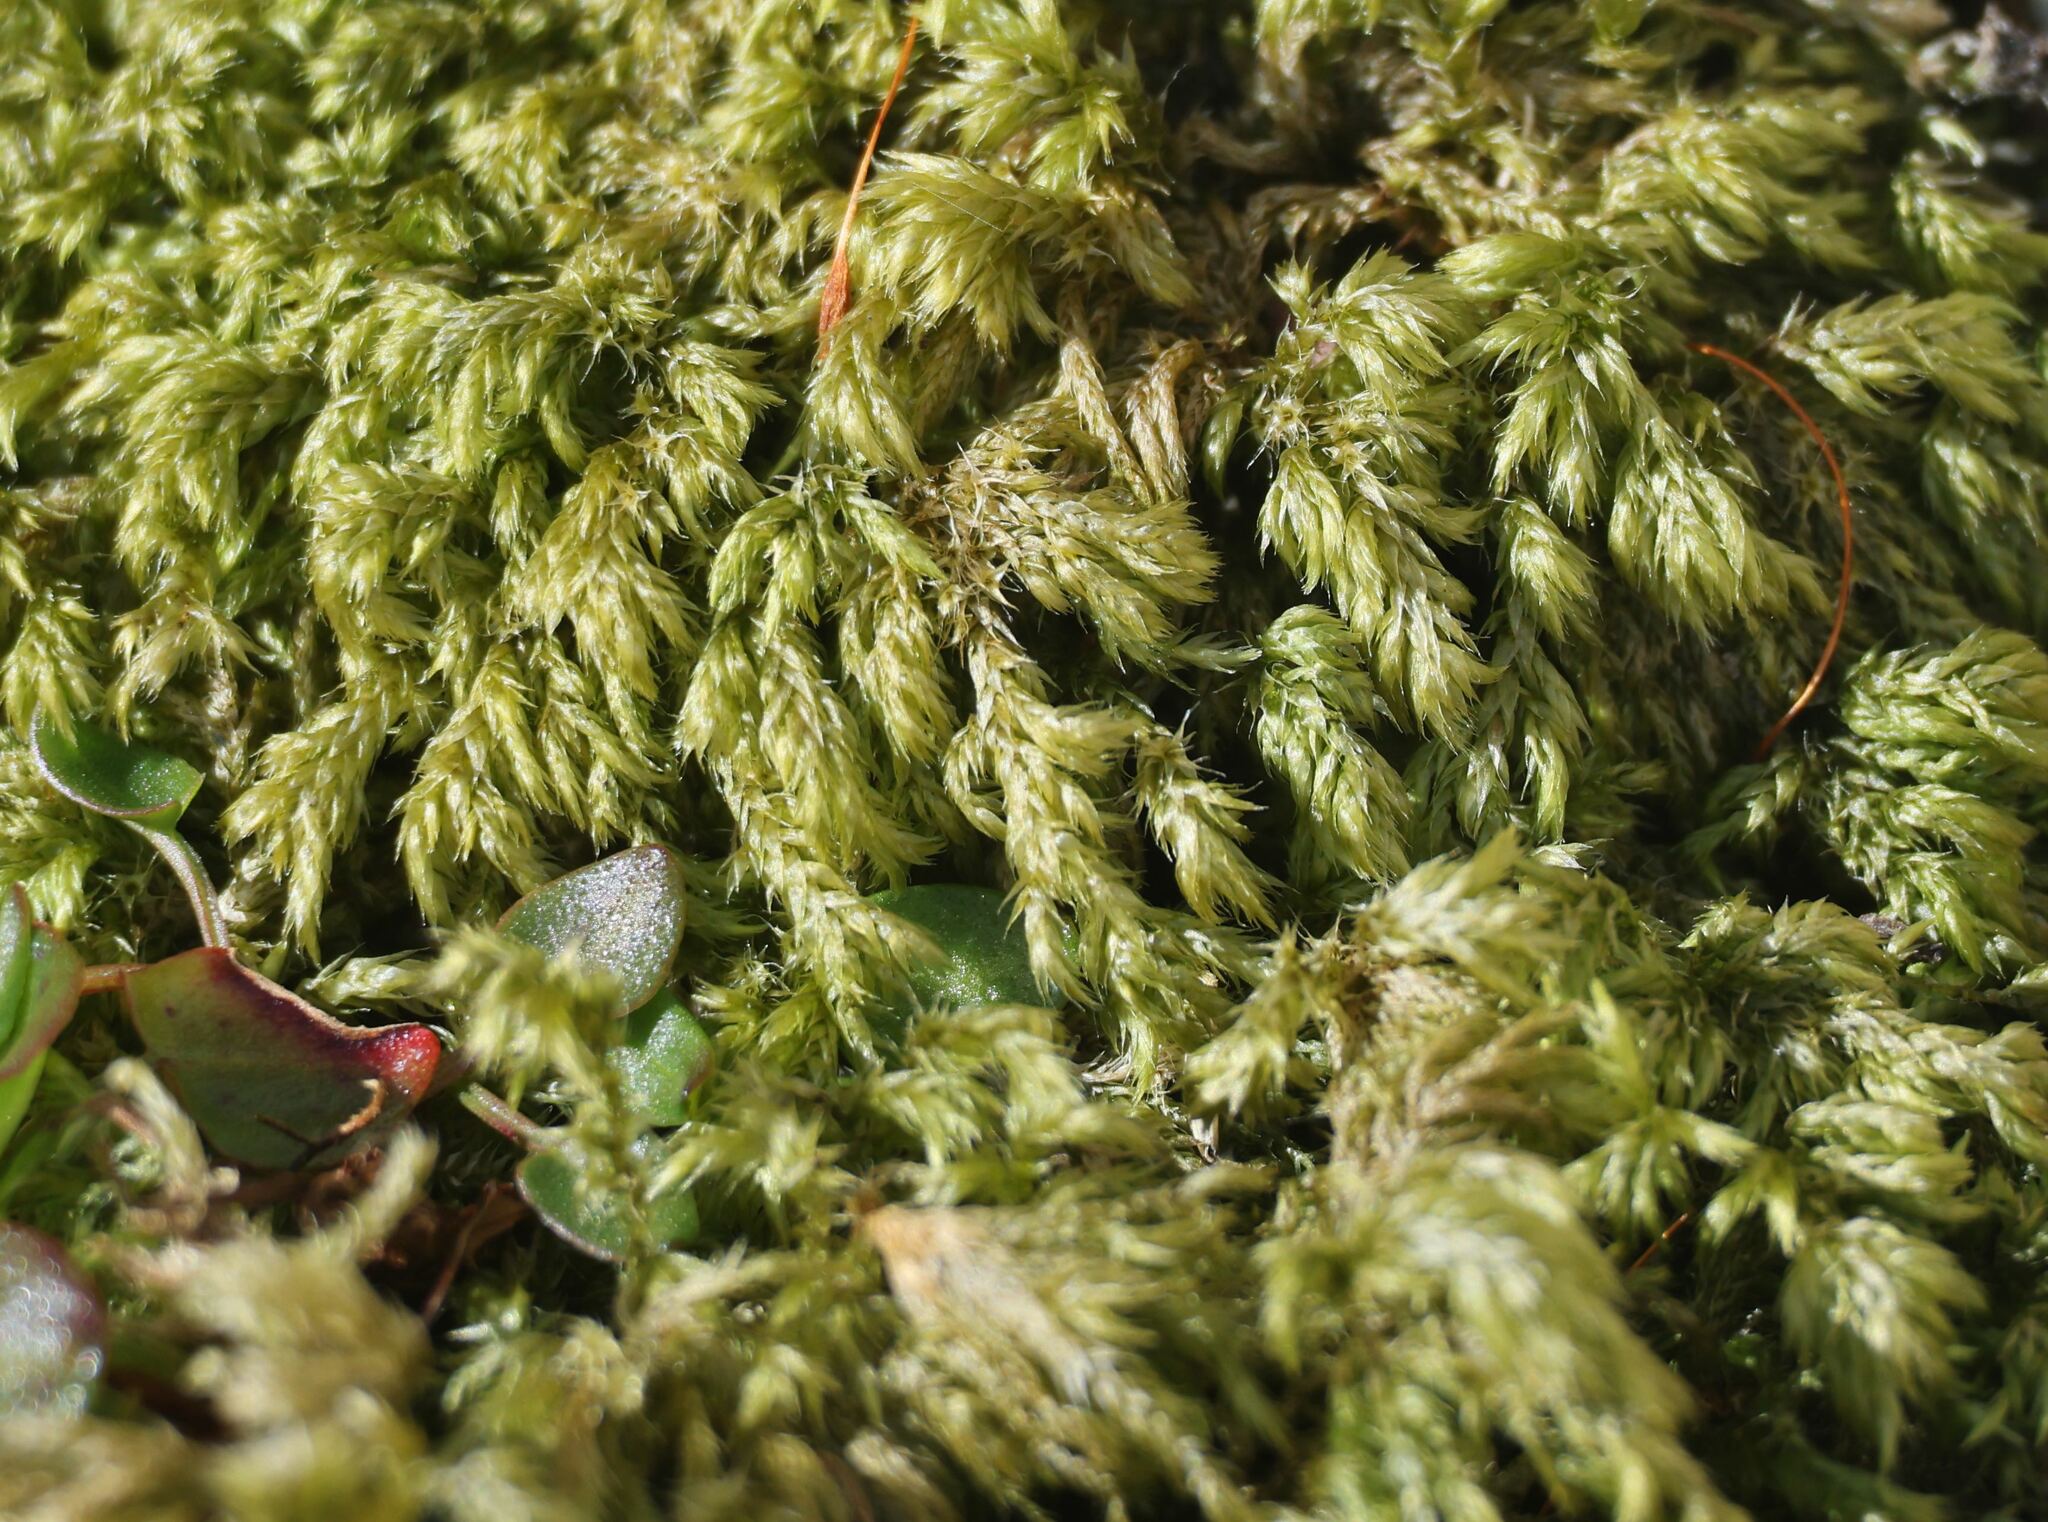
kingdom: Plantae
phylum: Bryophyta
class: Bryopsida
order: Hypnales
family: Lembophyllaceae
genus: Pseudisothecium
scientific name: Pseudisothecium myosuroides
